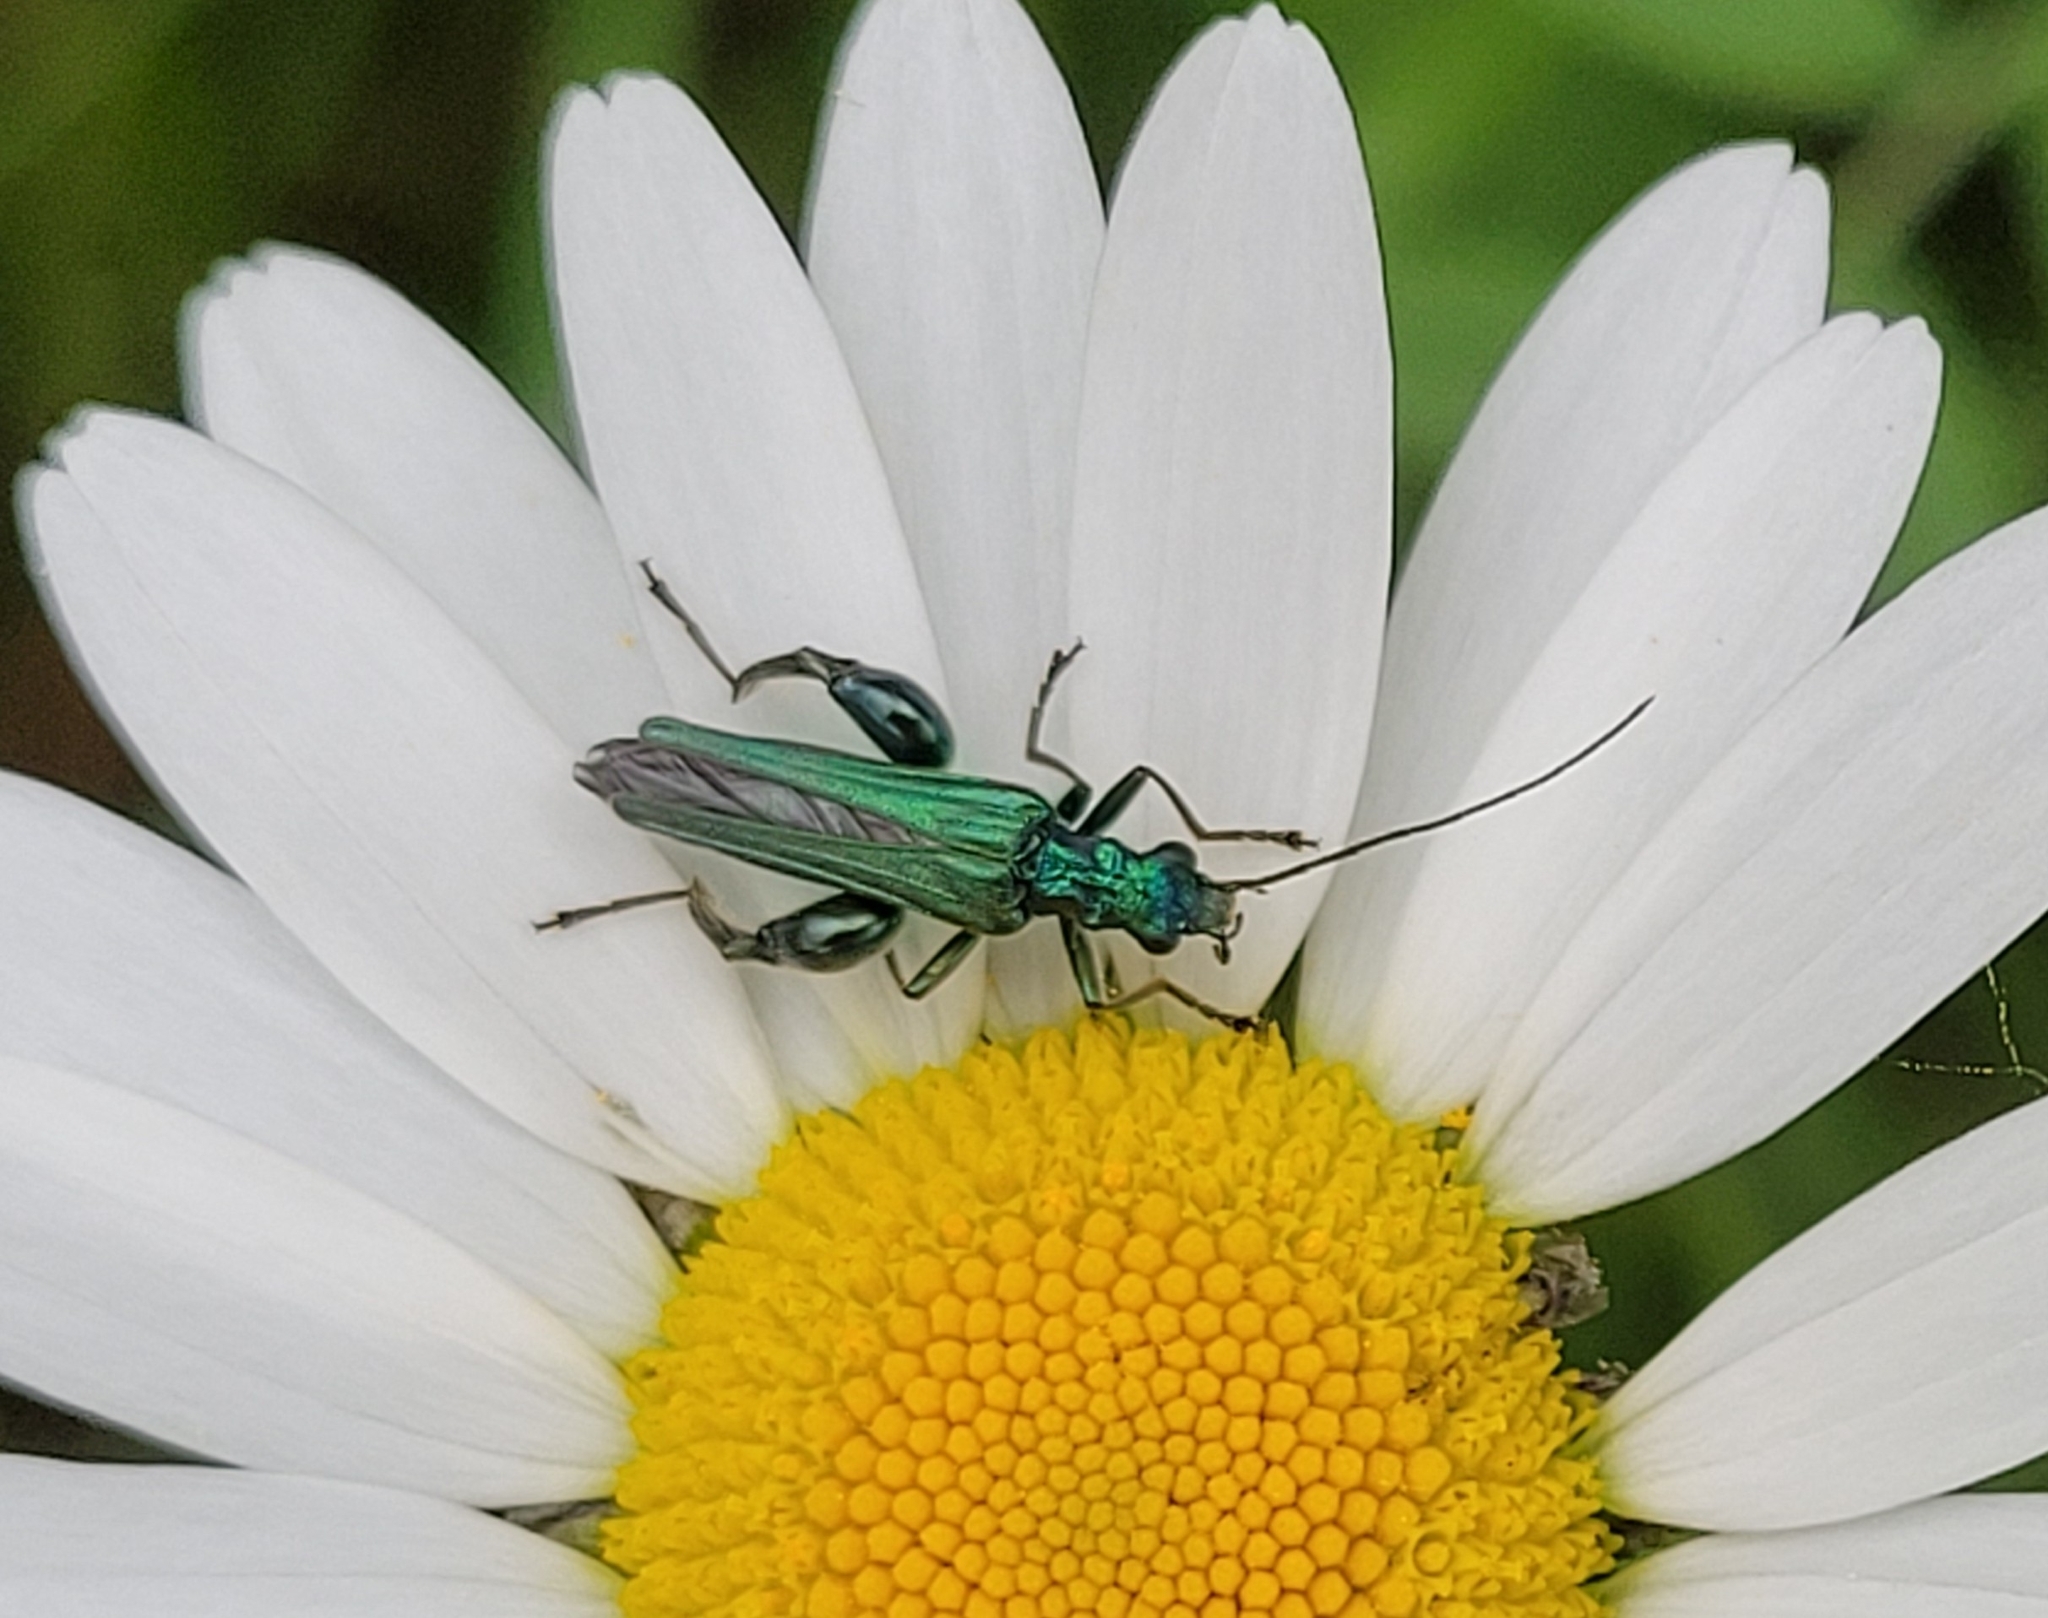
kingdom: Animalia
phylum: Arthropoda
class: Insecta
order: Coleoptera
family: Oedemeridae
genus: Oedemera
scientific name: Oedemera nobilis
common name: Swollen-thighed beetle
